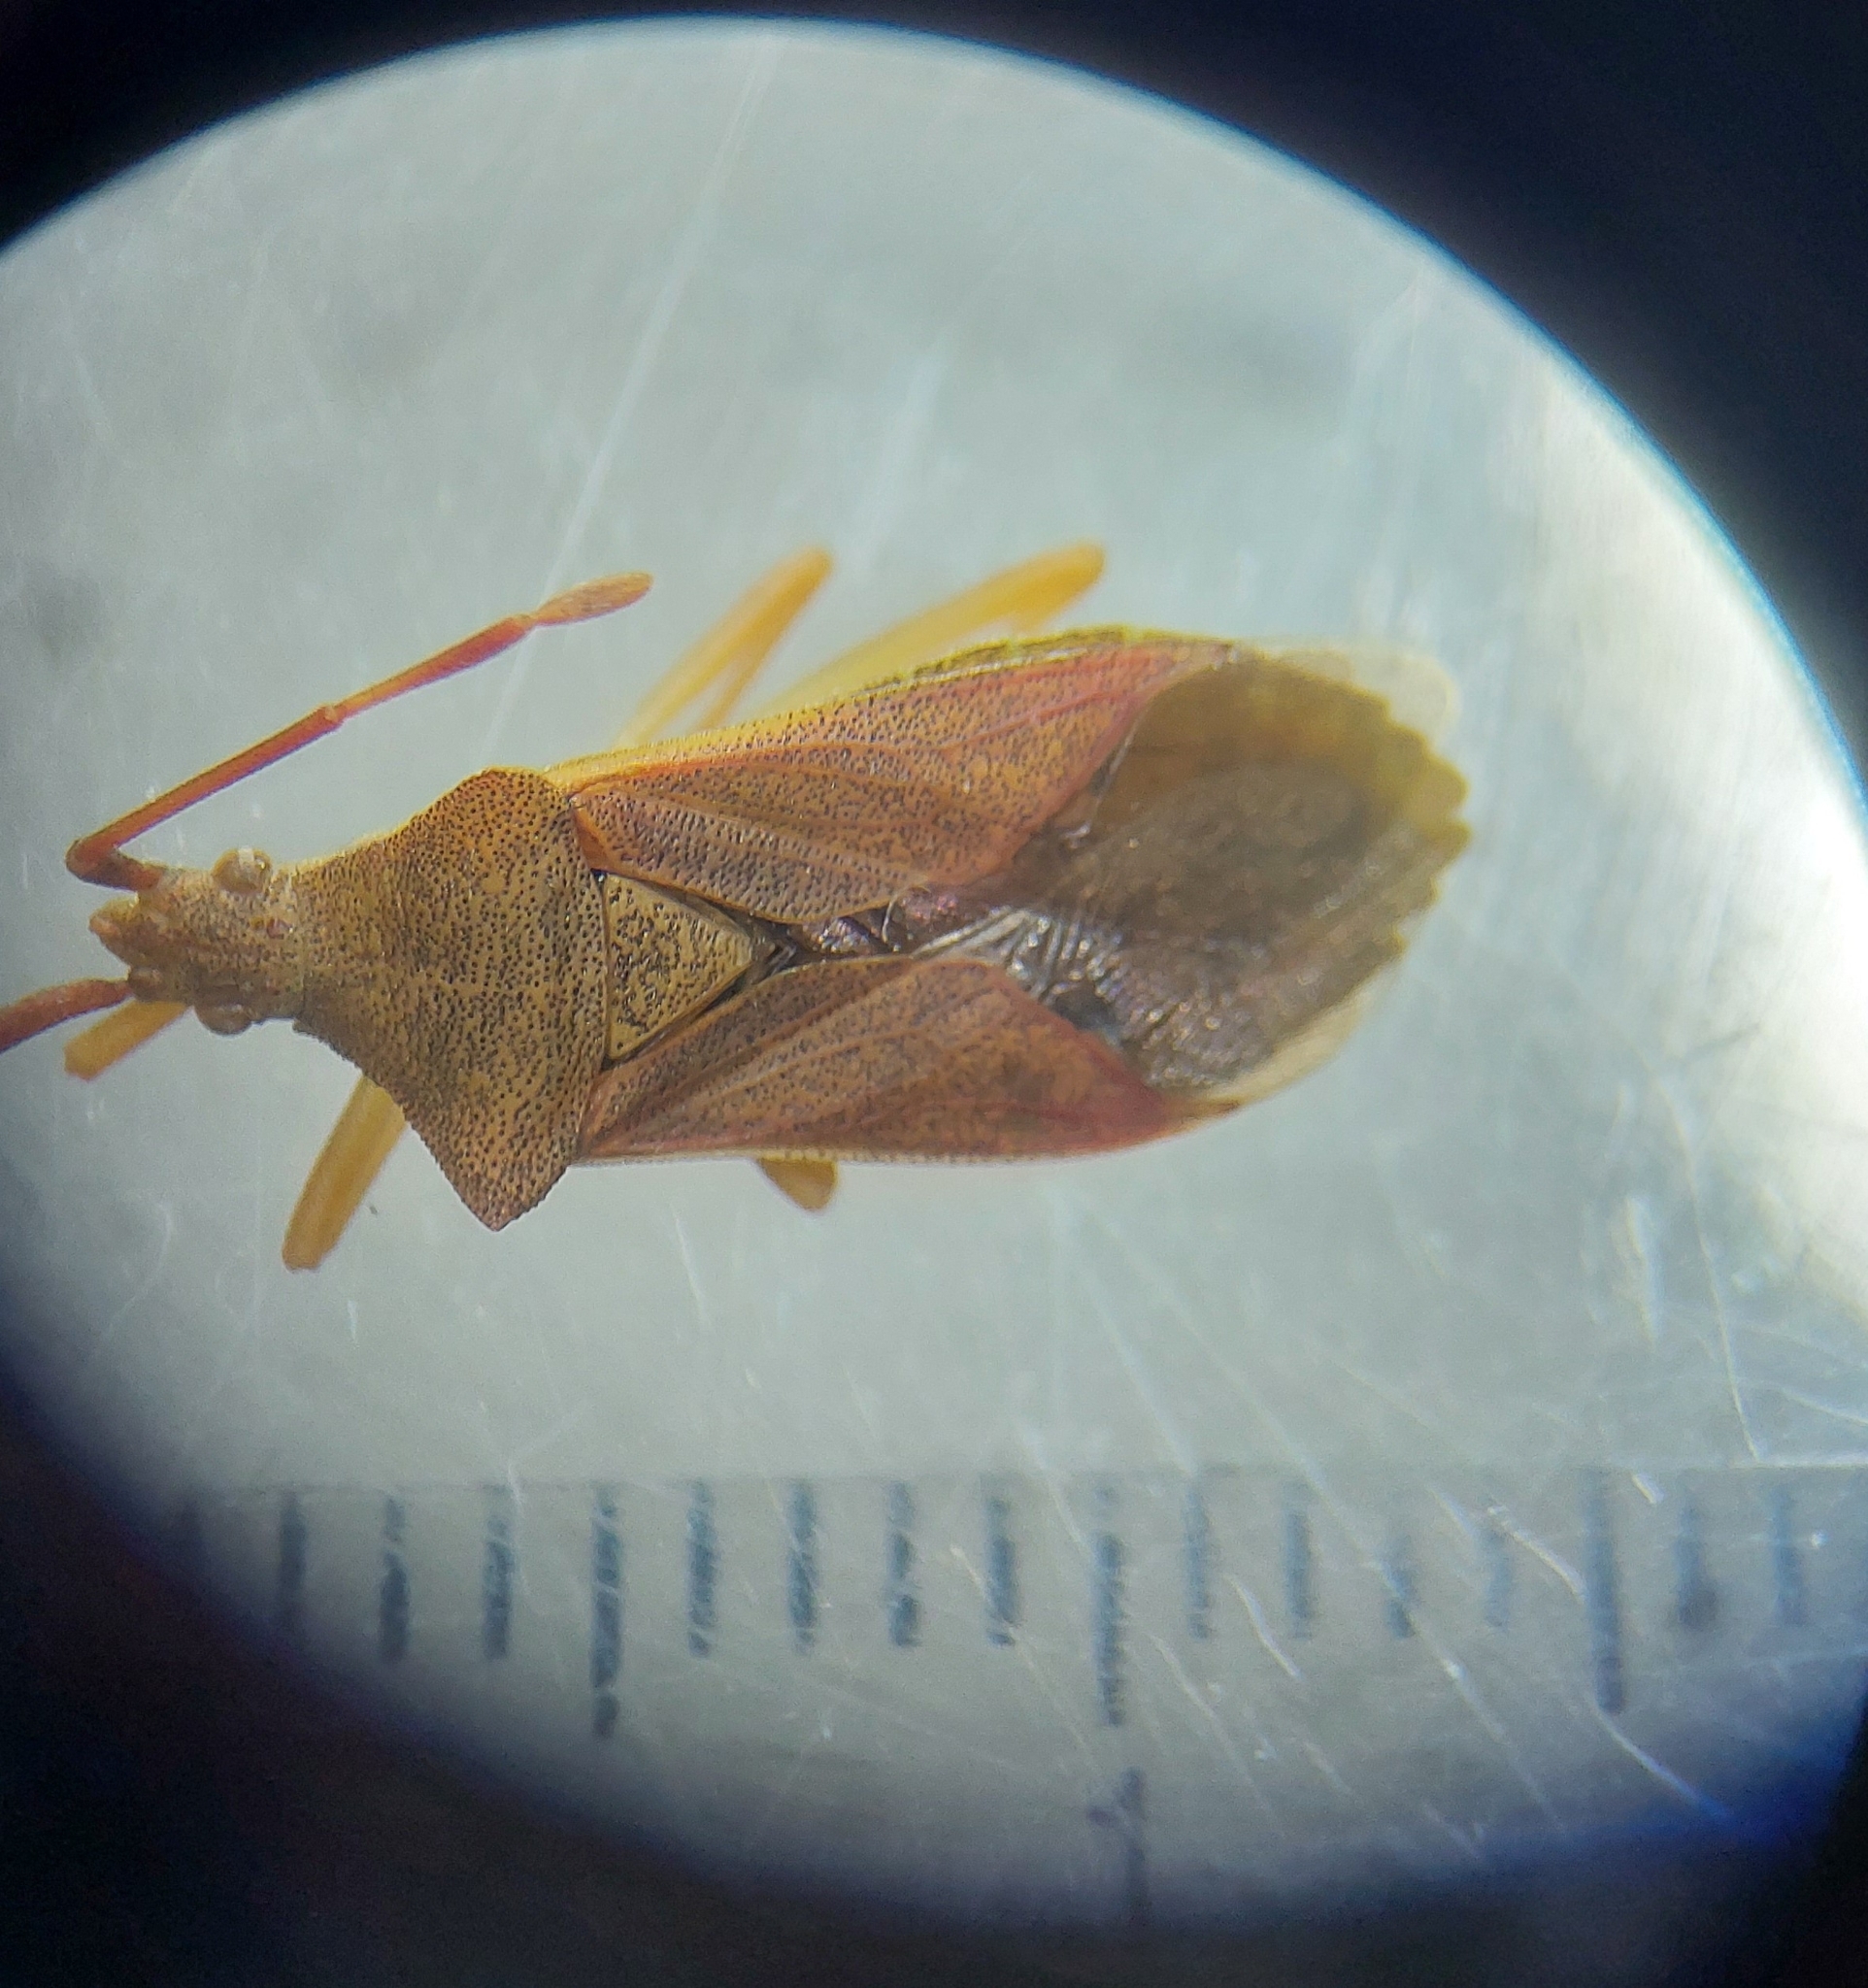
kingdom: Animalia
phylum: Arthropoda
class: Insecta
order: Hemiptera
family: Coreidae
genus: Gonocerus
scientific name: Gonocerus acuteangulatus
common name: Box bug
